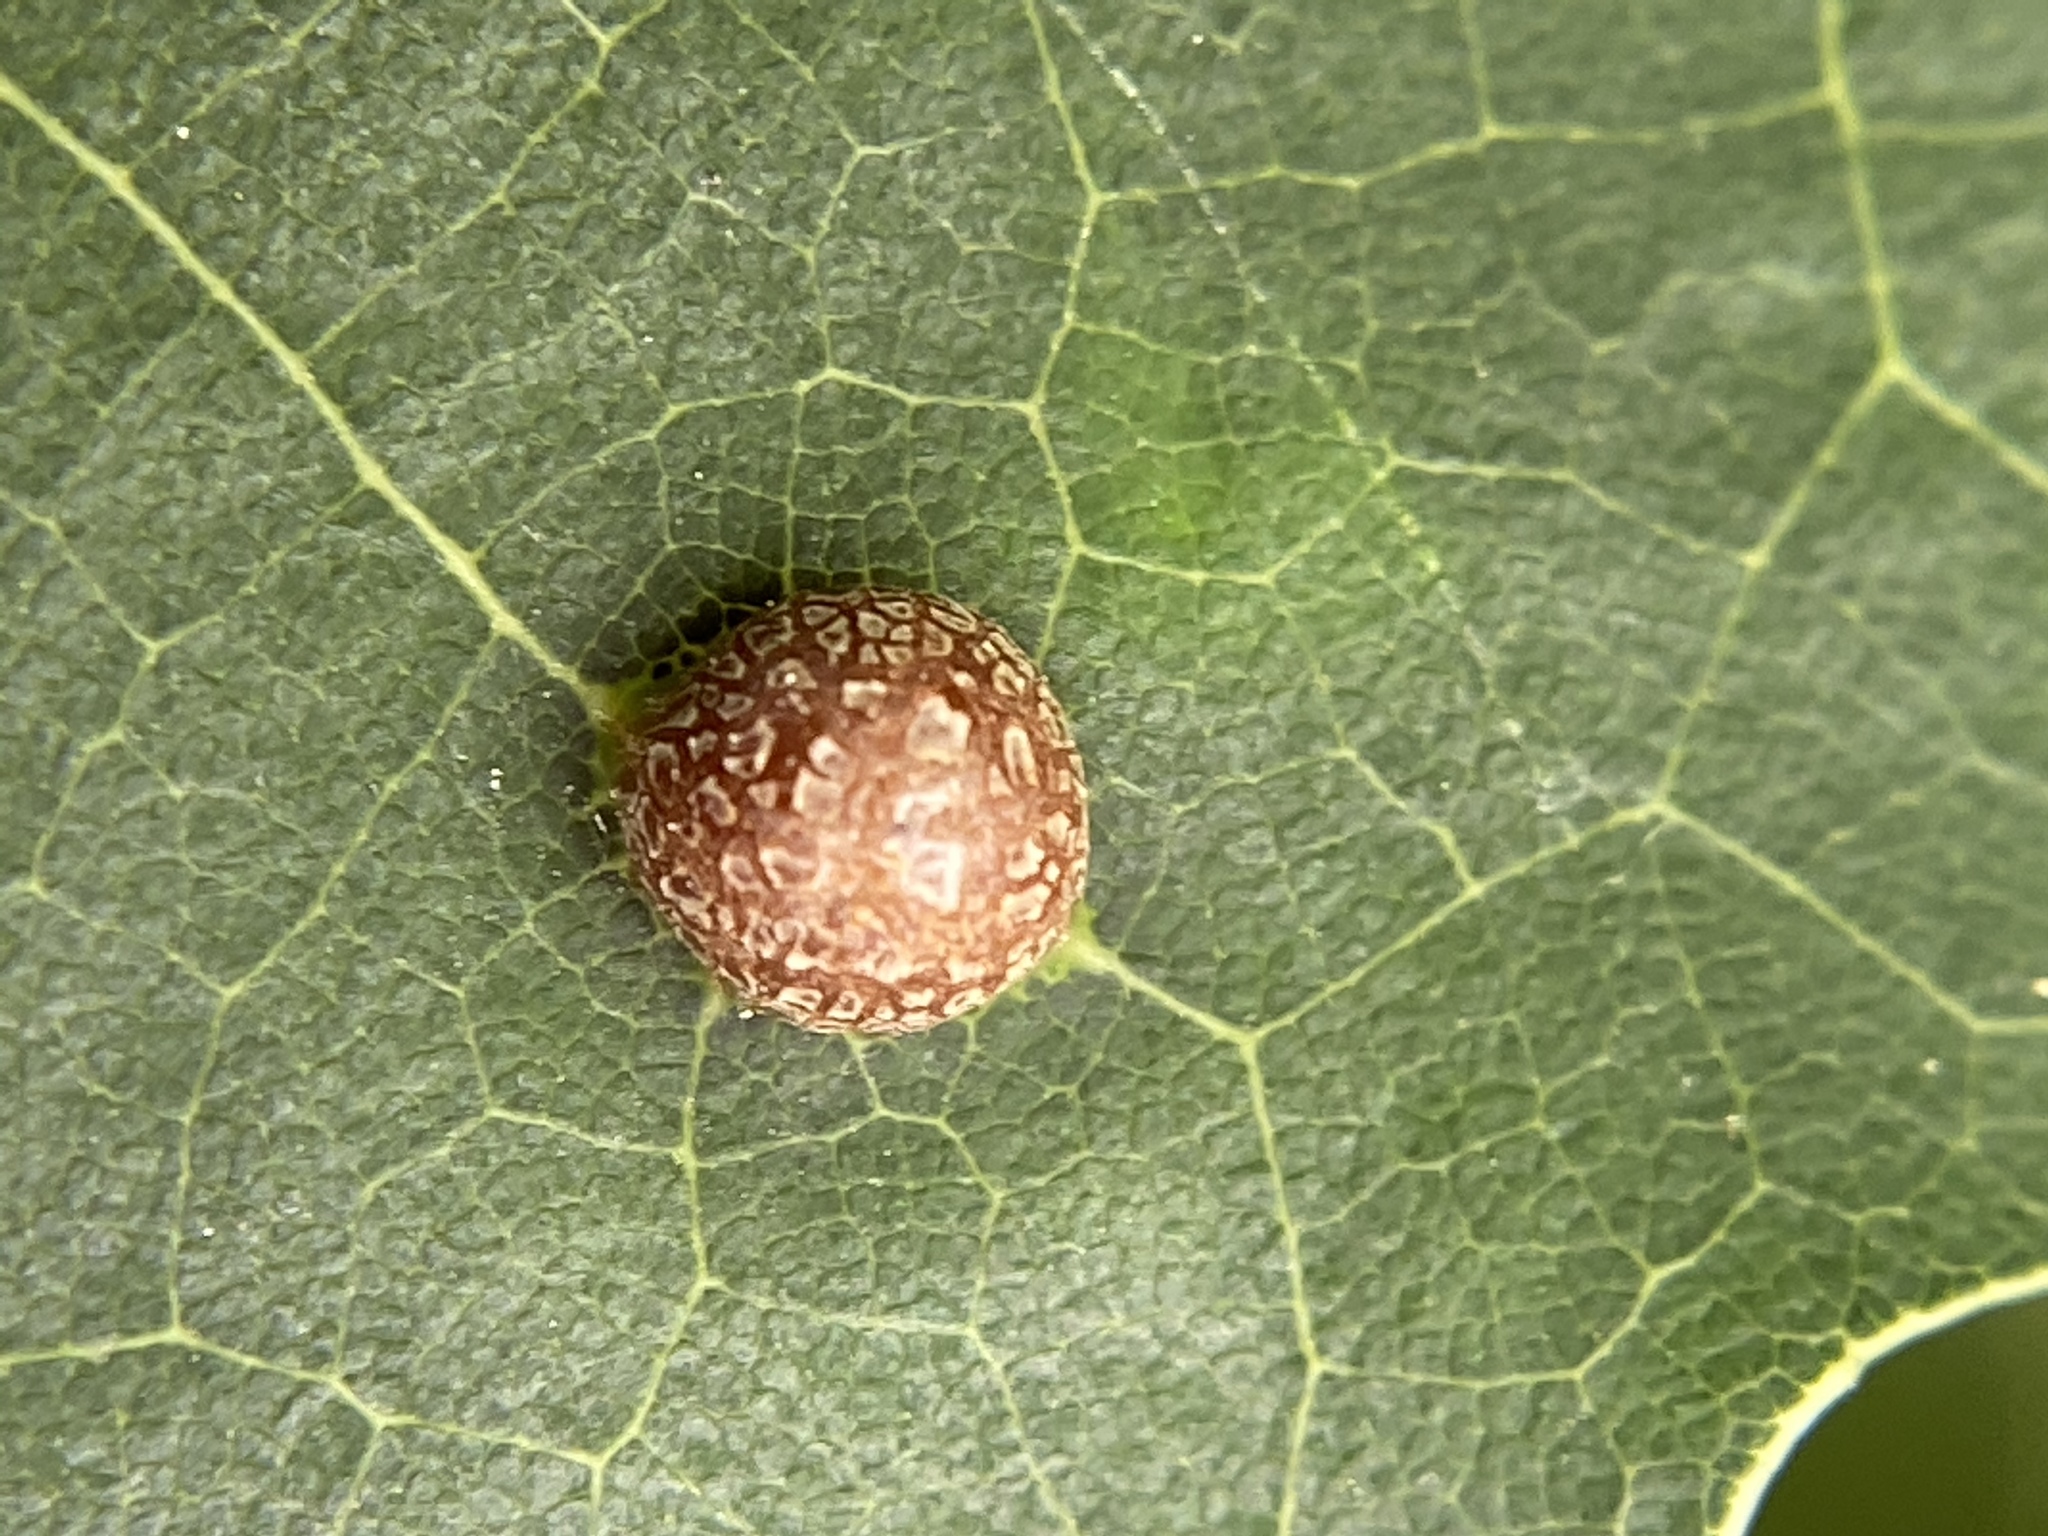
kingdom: Animalia
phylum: Arthropoda
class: Insecta
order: Diptera
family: Cecidomyiidae
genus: Polystepha
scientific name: Polystepha pilulae
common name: Oak leaf gall midge
